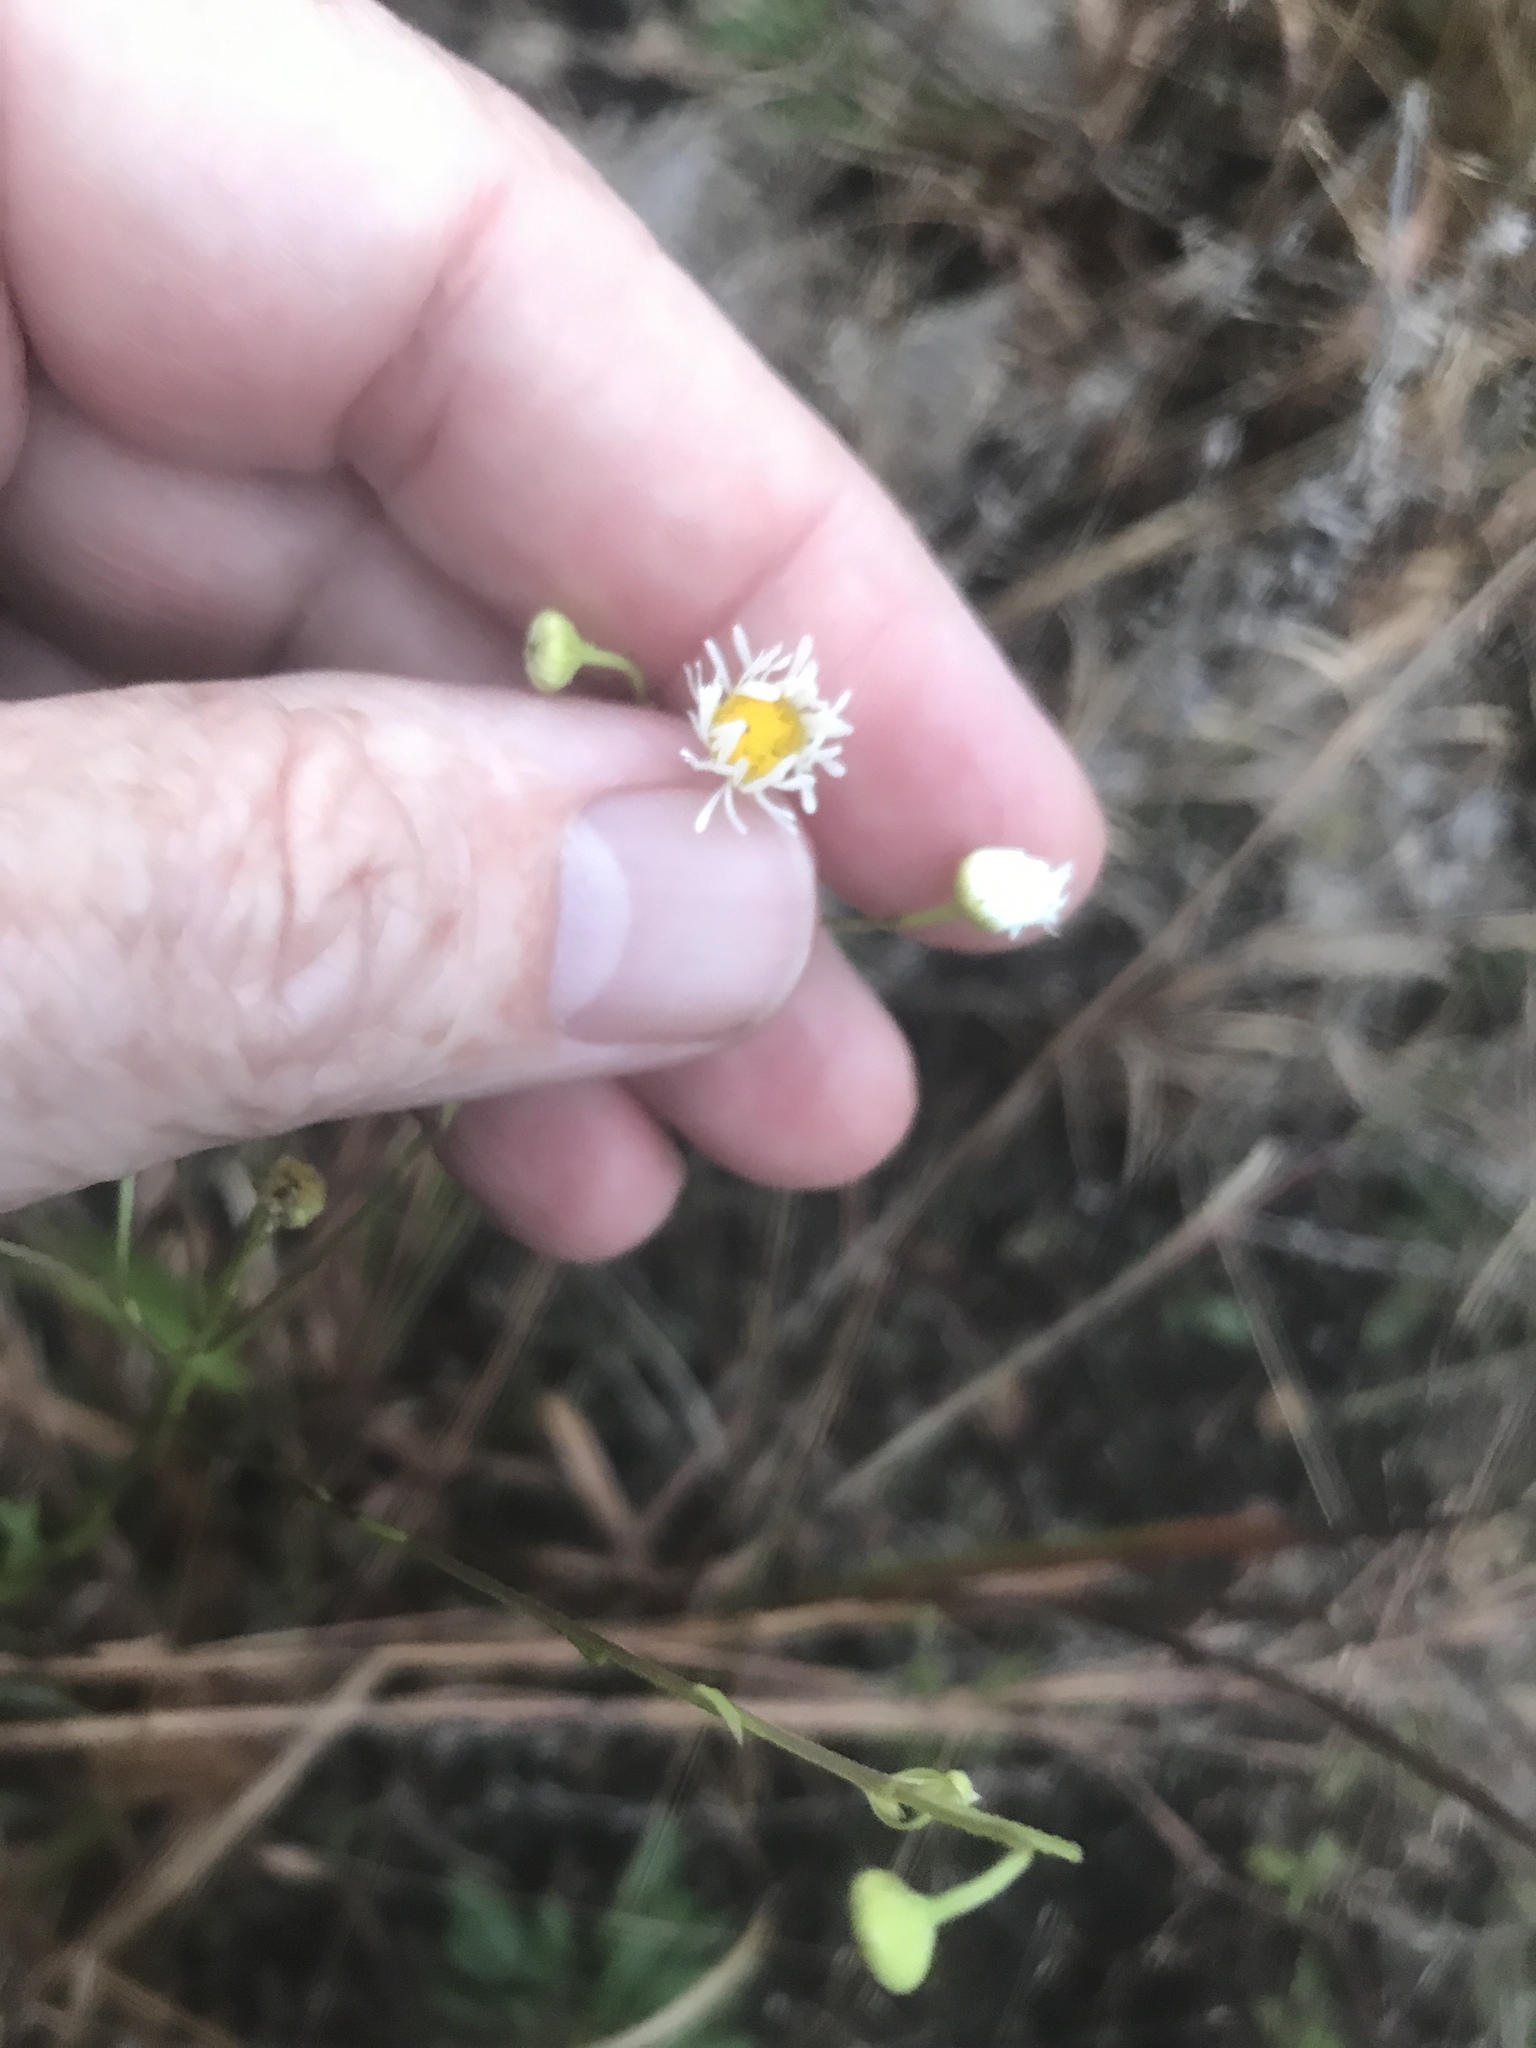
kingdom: Plantae
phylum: Tracheophyta
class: Magnoliopsida
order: Asterales
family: Asteraceae
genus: Erigeron
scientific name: Erigeron allisonii
